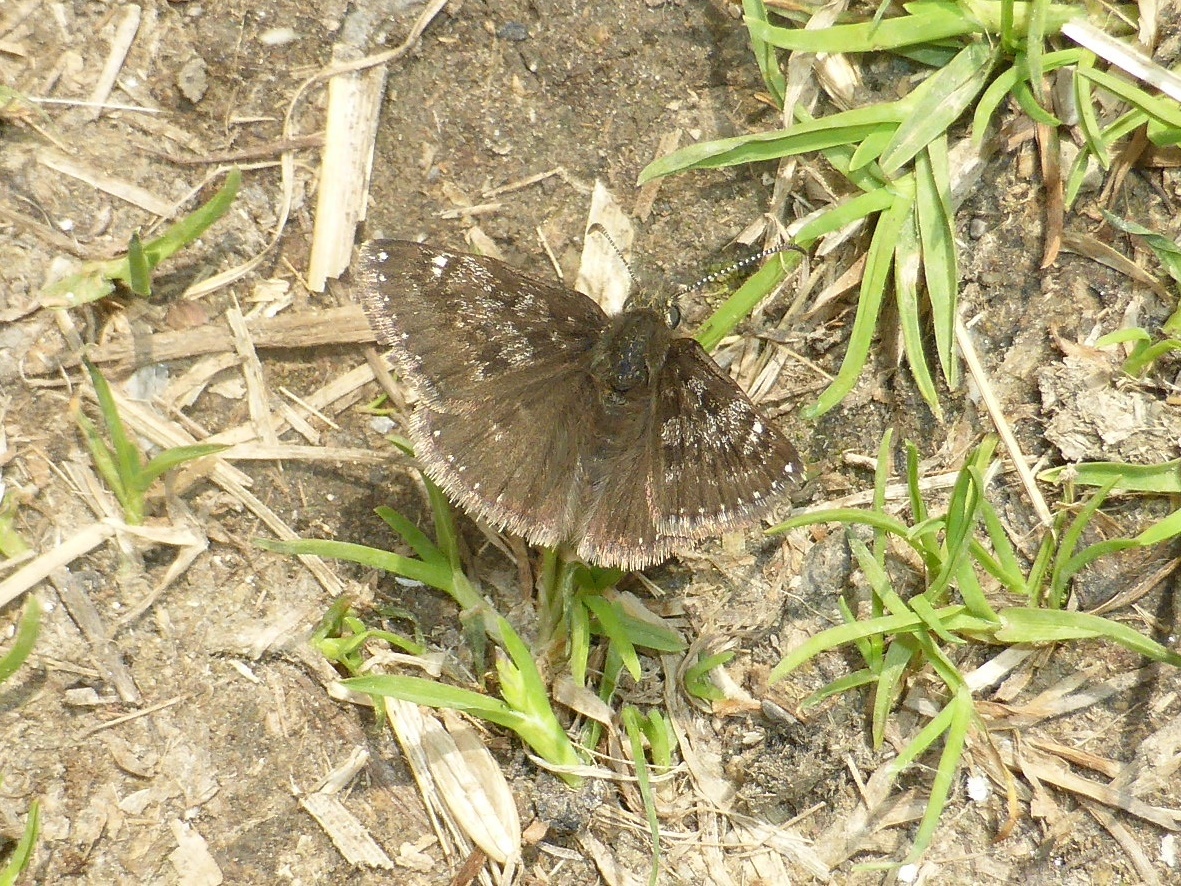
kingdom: Animalia
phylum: Arthropoda
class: Insecta
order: Lepidoptera
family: Hesperiidae
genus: Erynnis
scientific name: Erynnis tages
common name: Dingy skipper
